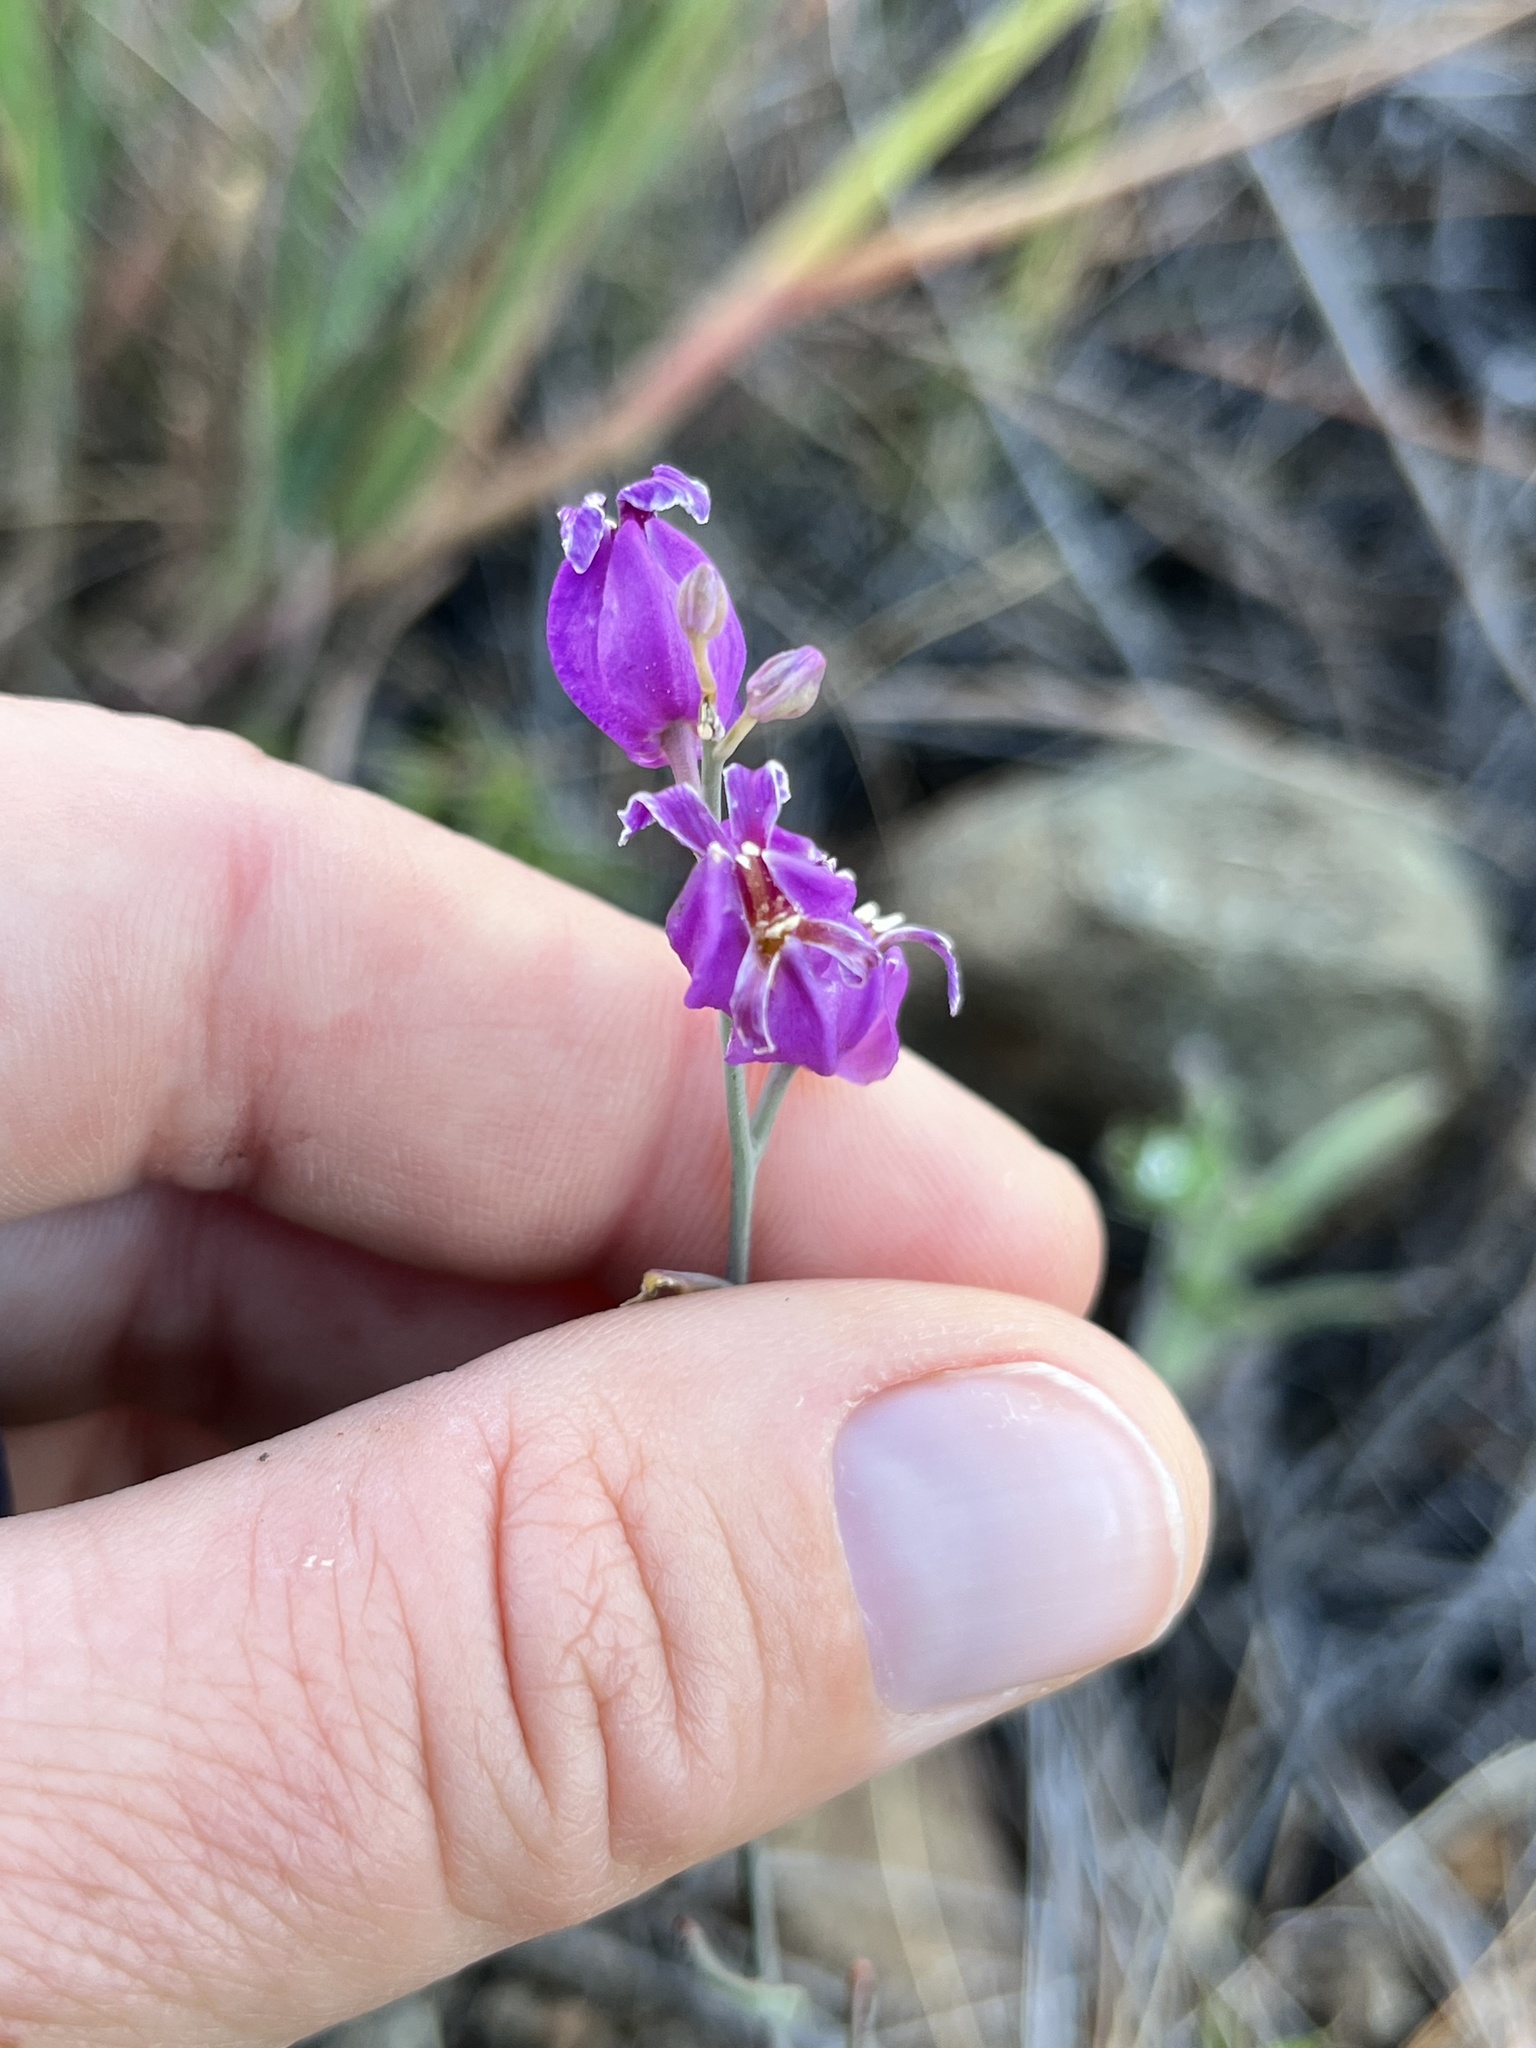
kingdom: Plantae
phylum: Tracheophyta
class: Magnoliopsida
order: Brassicales
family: Brassicaceae
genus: Streptanthus
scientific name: Streptanthus glandulosus
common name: Jewel-flower
